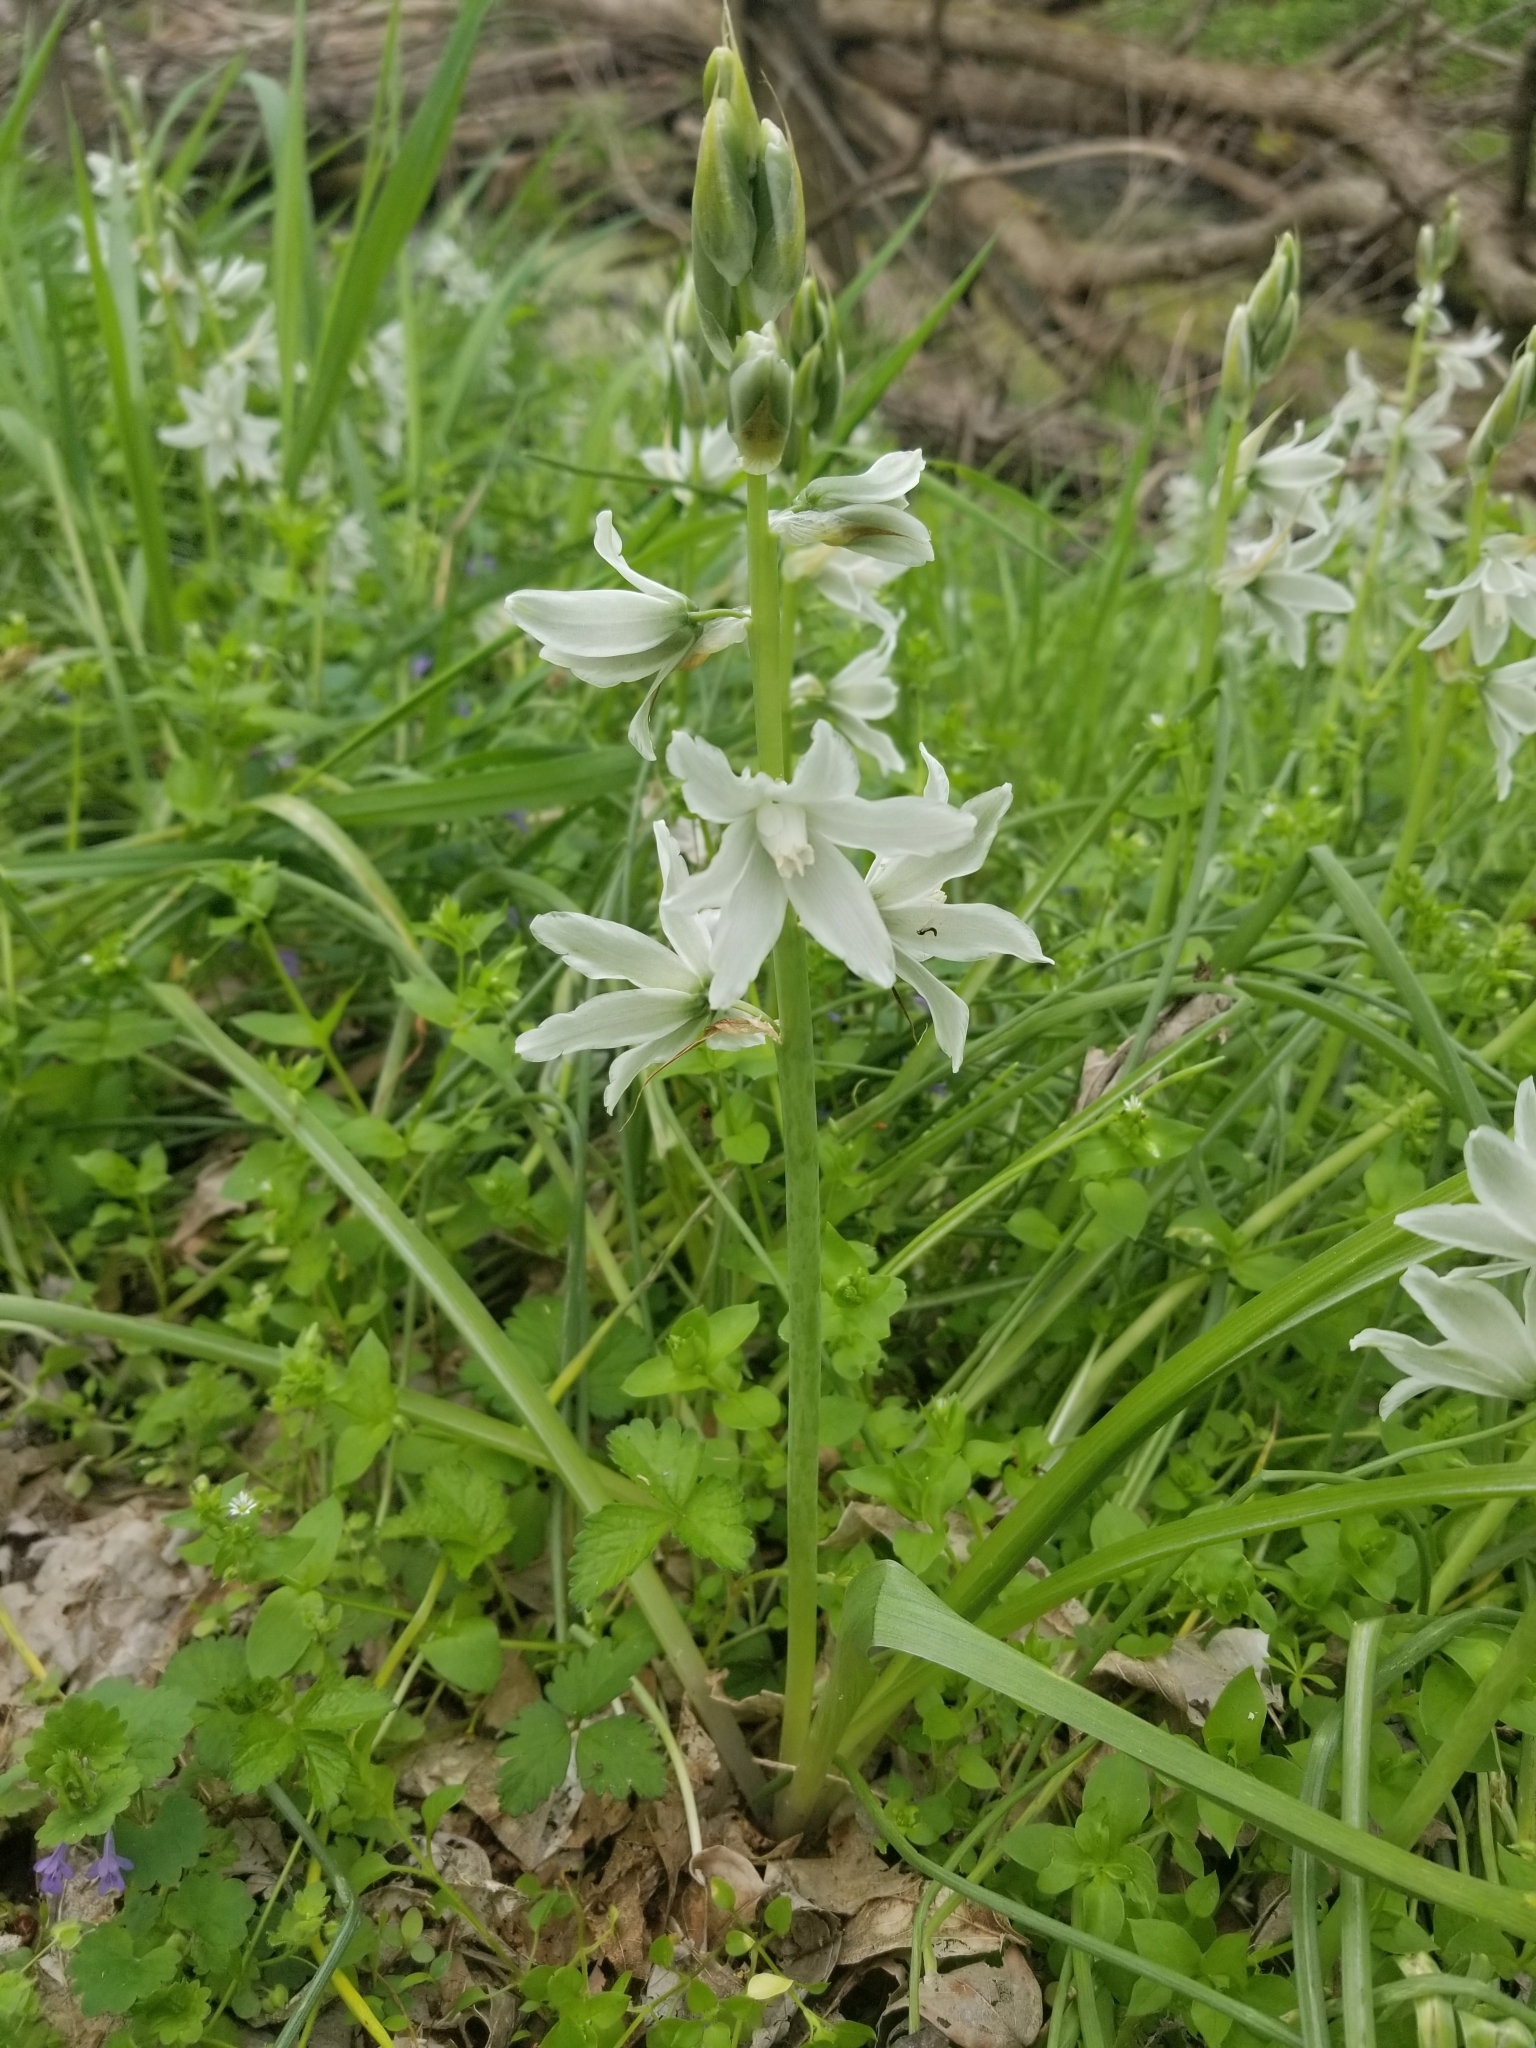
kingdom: Plantae
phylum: Tracheophyta
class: Liliopsida
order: Asparagales
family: Asparagaceae
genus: Ornithogalum
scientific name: Ornithogalum nutans
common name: Drooping star-of-bethlehem
